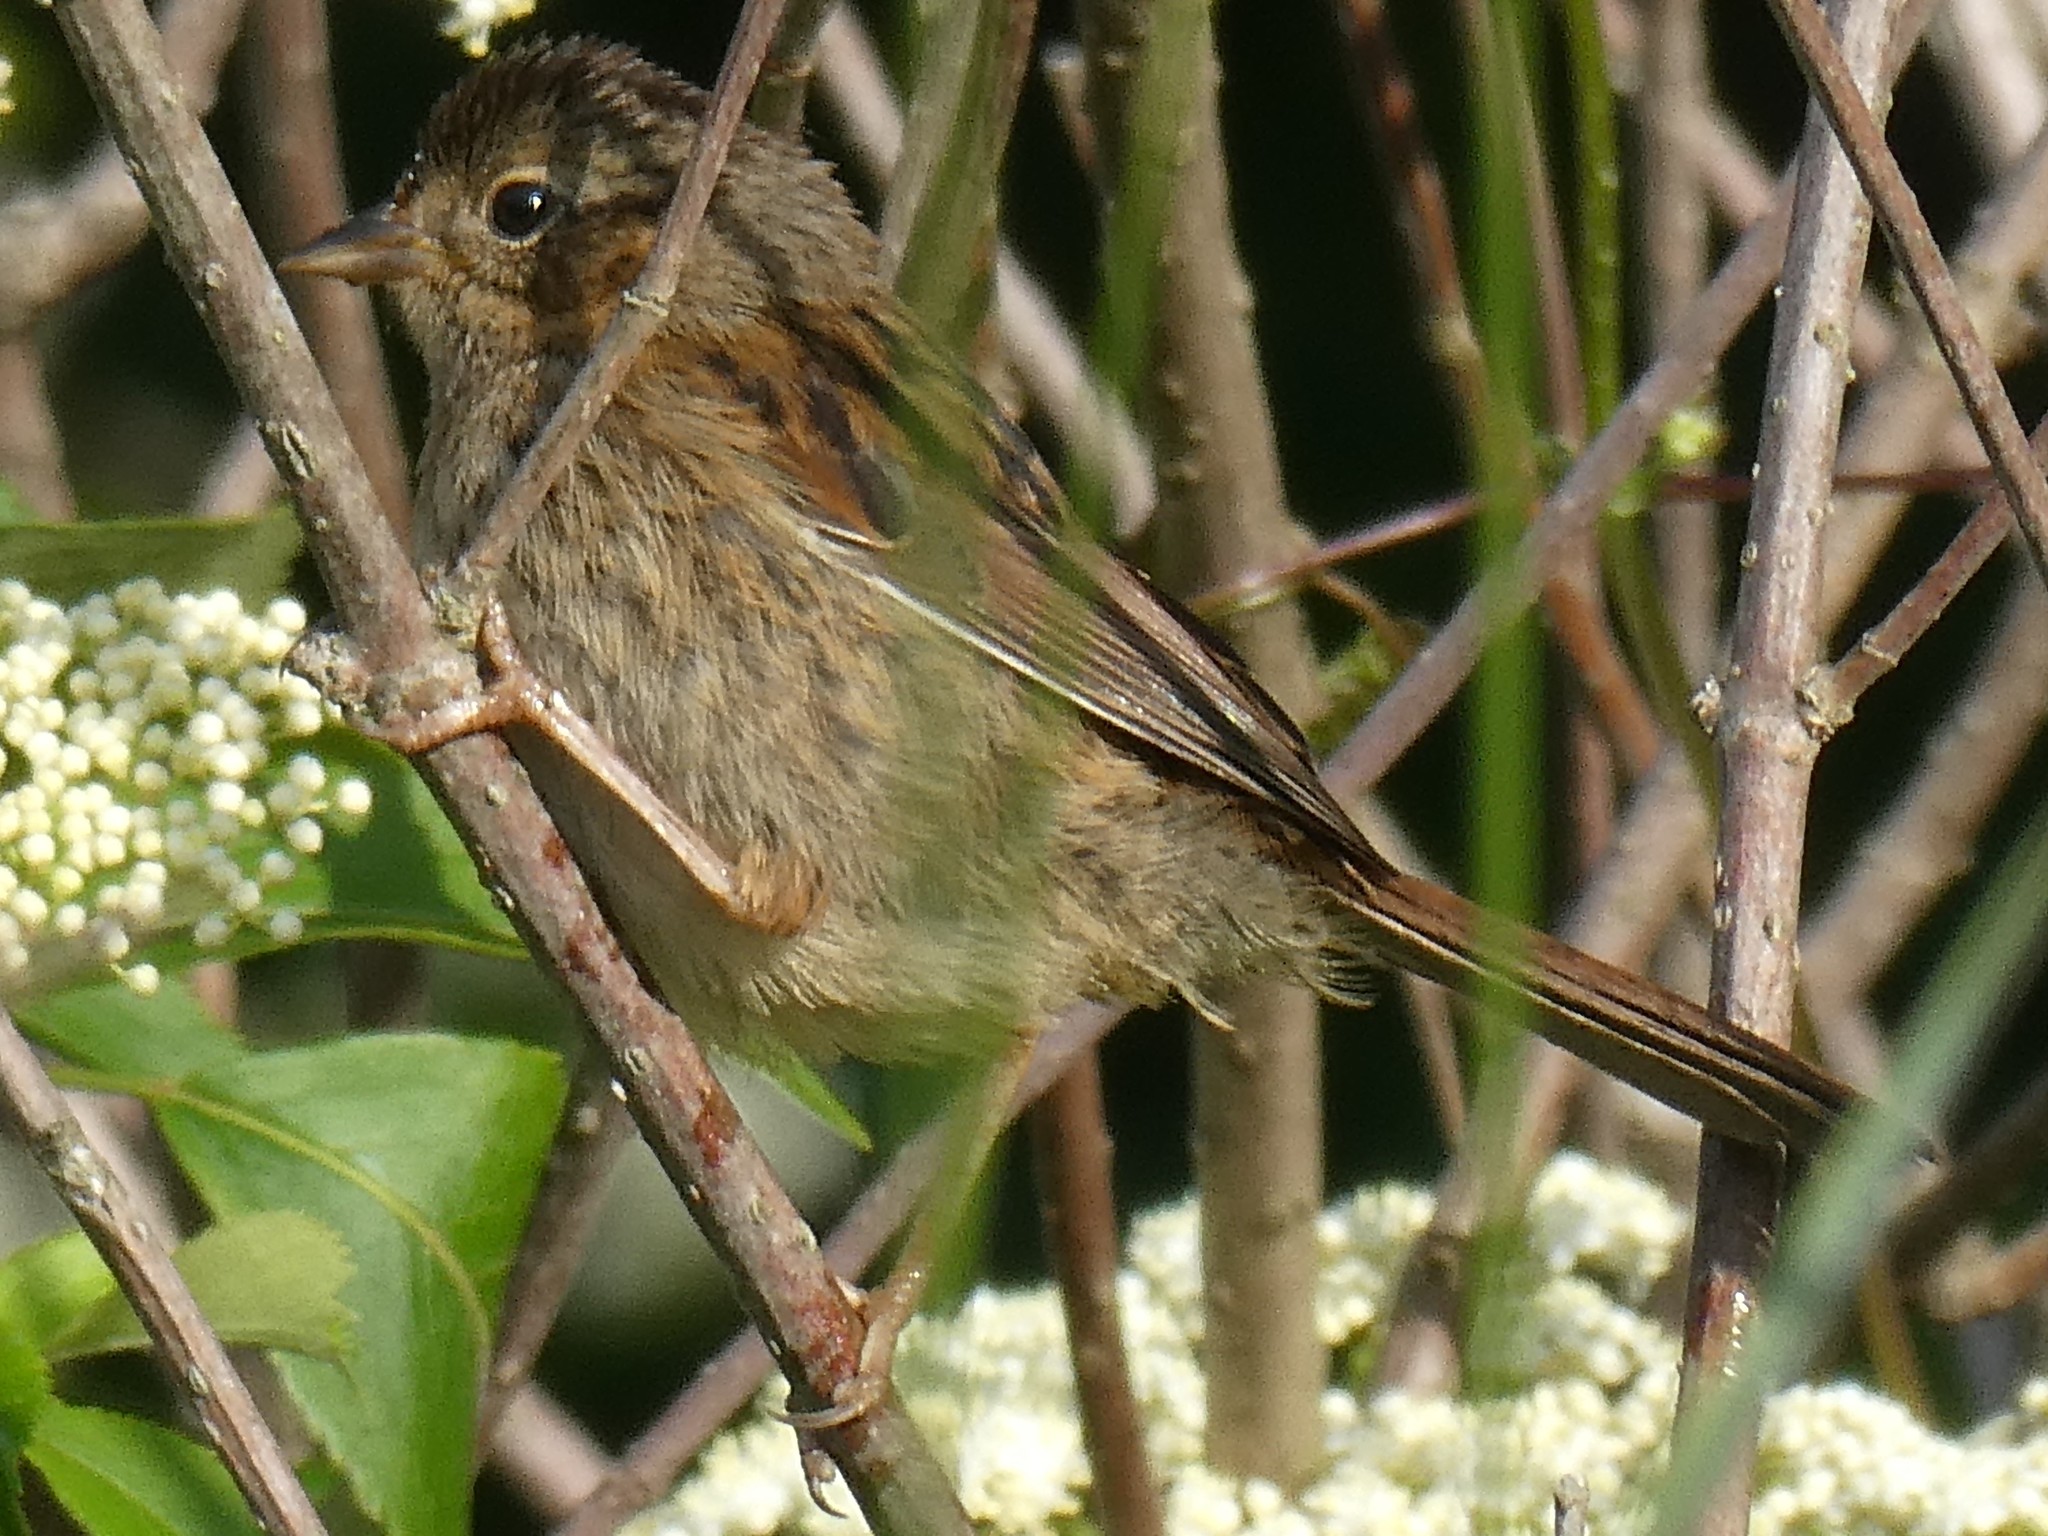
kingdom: Animalia
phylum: Chordata
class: Aves
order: Passeriformes
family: Passerellidae
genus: Melospiza
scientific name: Melospiza georgiana
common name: Swamp sparrow
